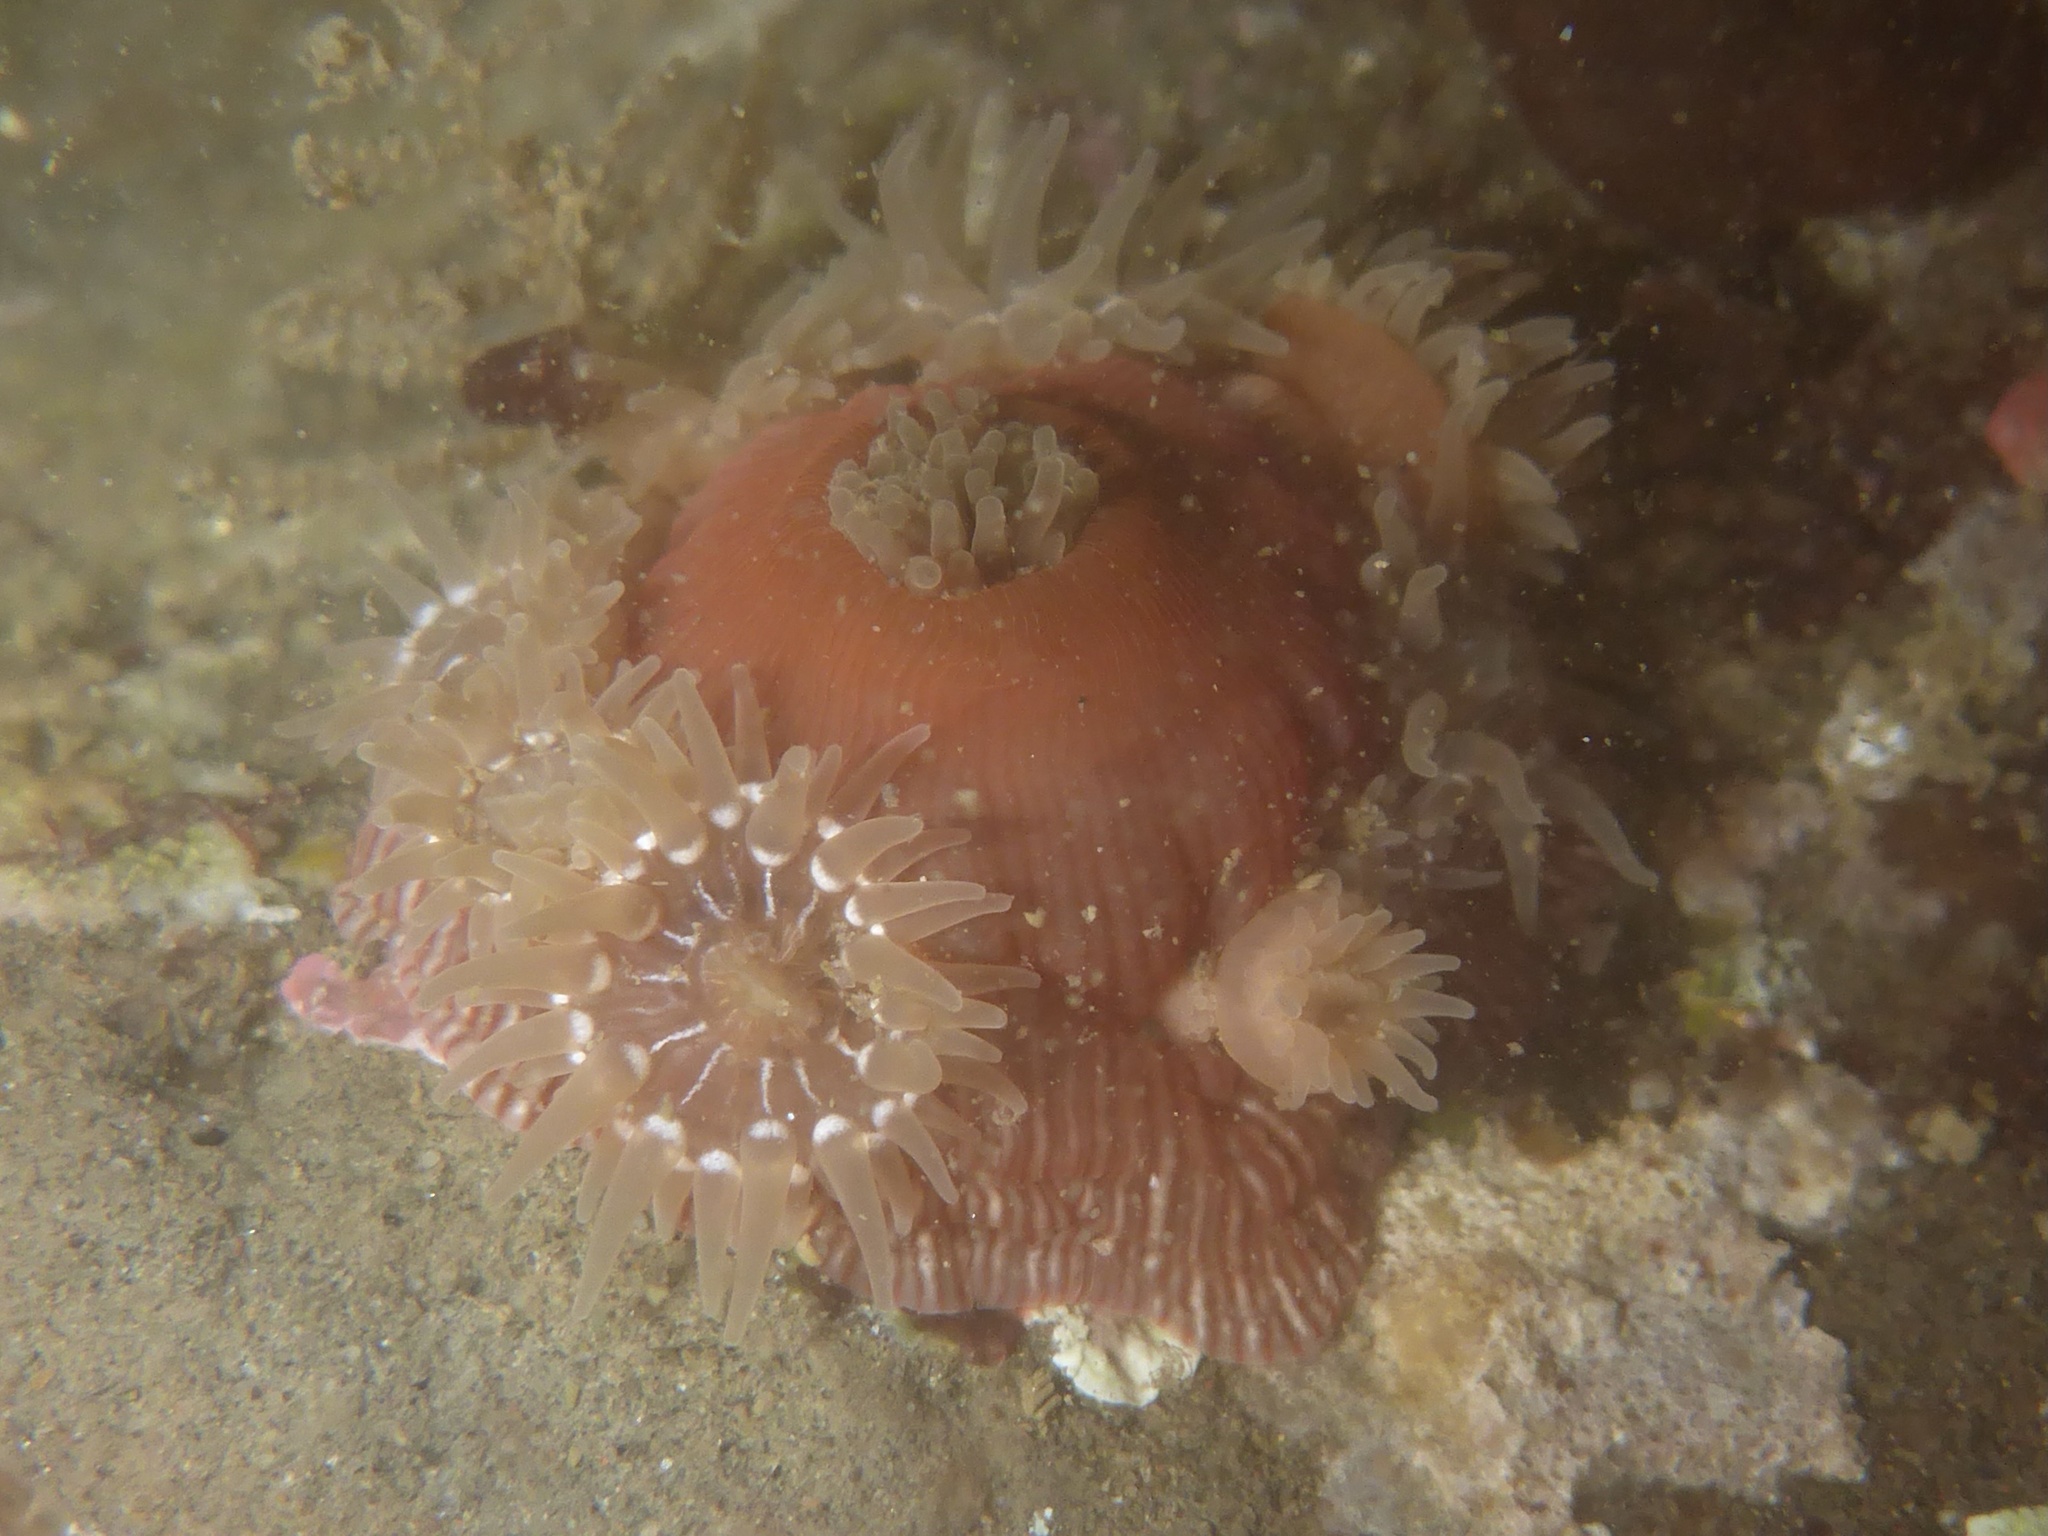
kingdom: Animalia
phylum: Cnidaria
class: Anthozoa
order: Actiniaria
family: Actiniidae
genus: Epiactis
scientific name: Epiactis prolifera
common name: Brooding anemone
